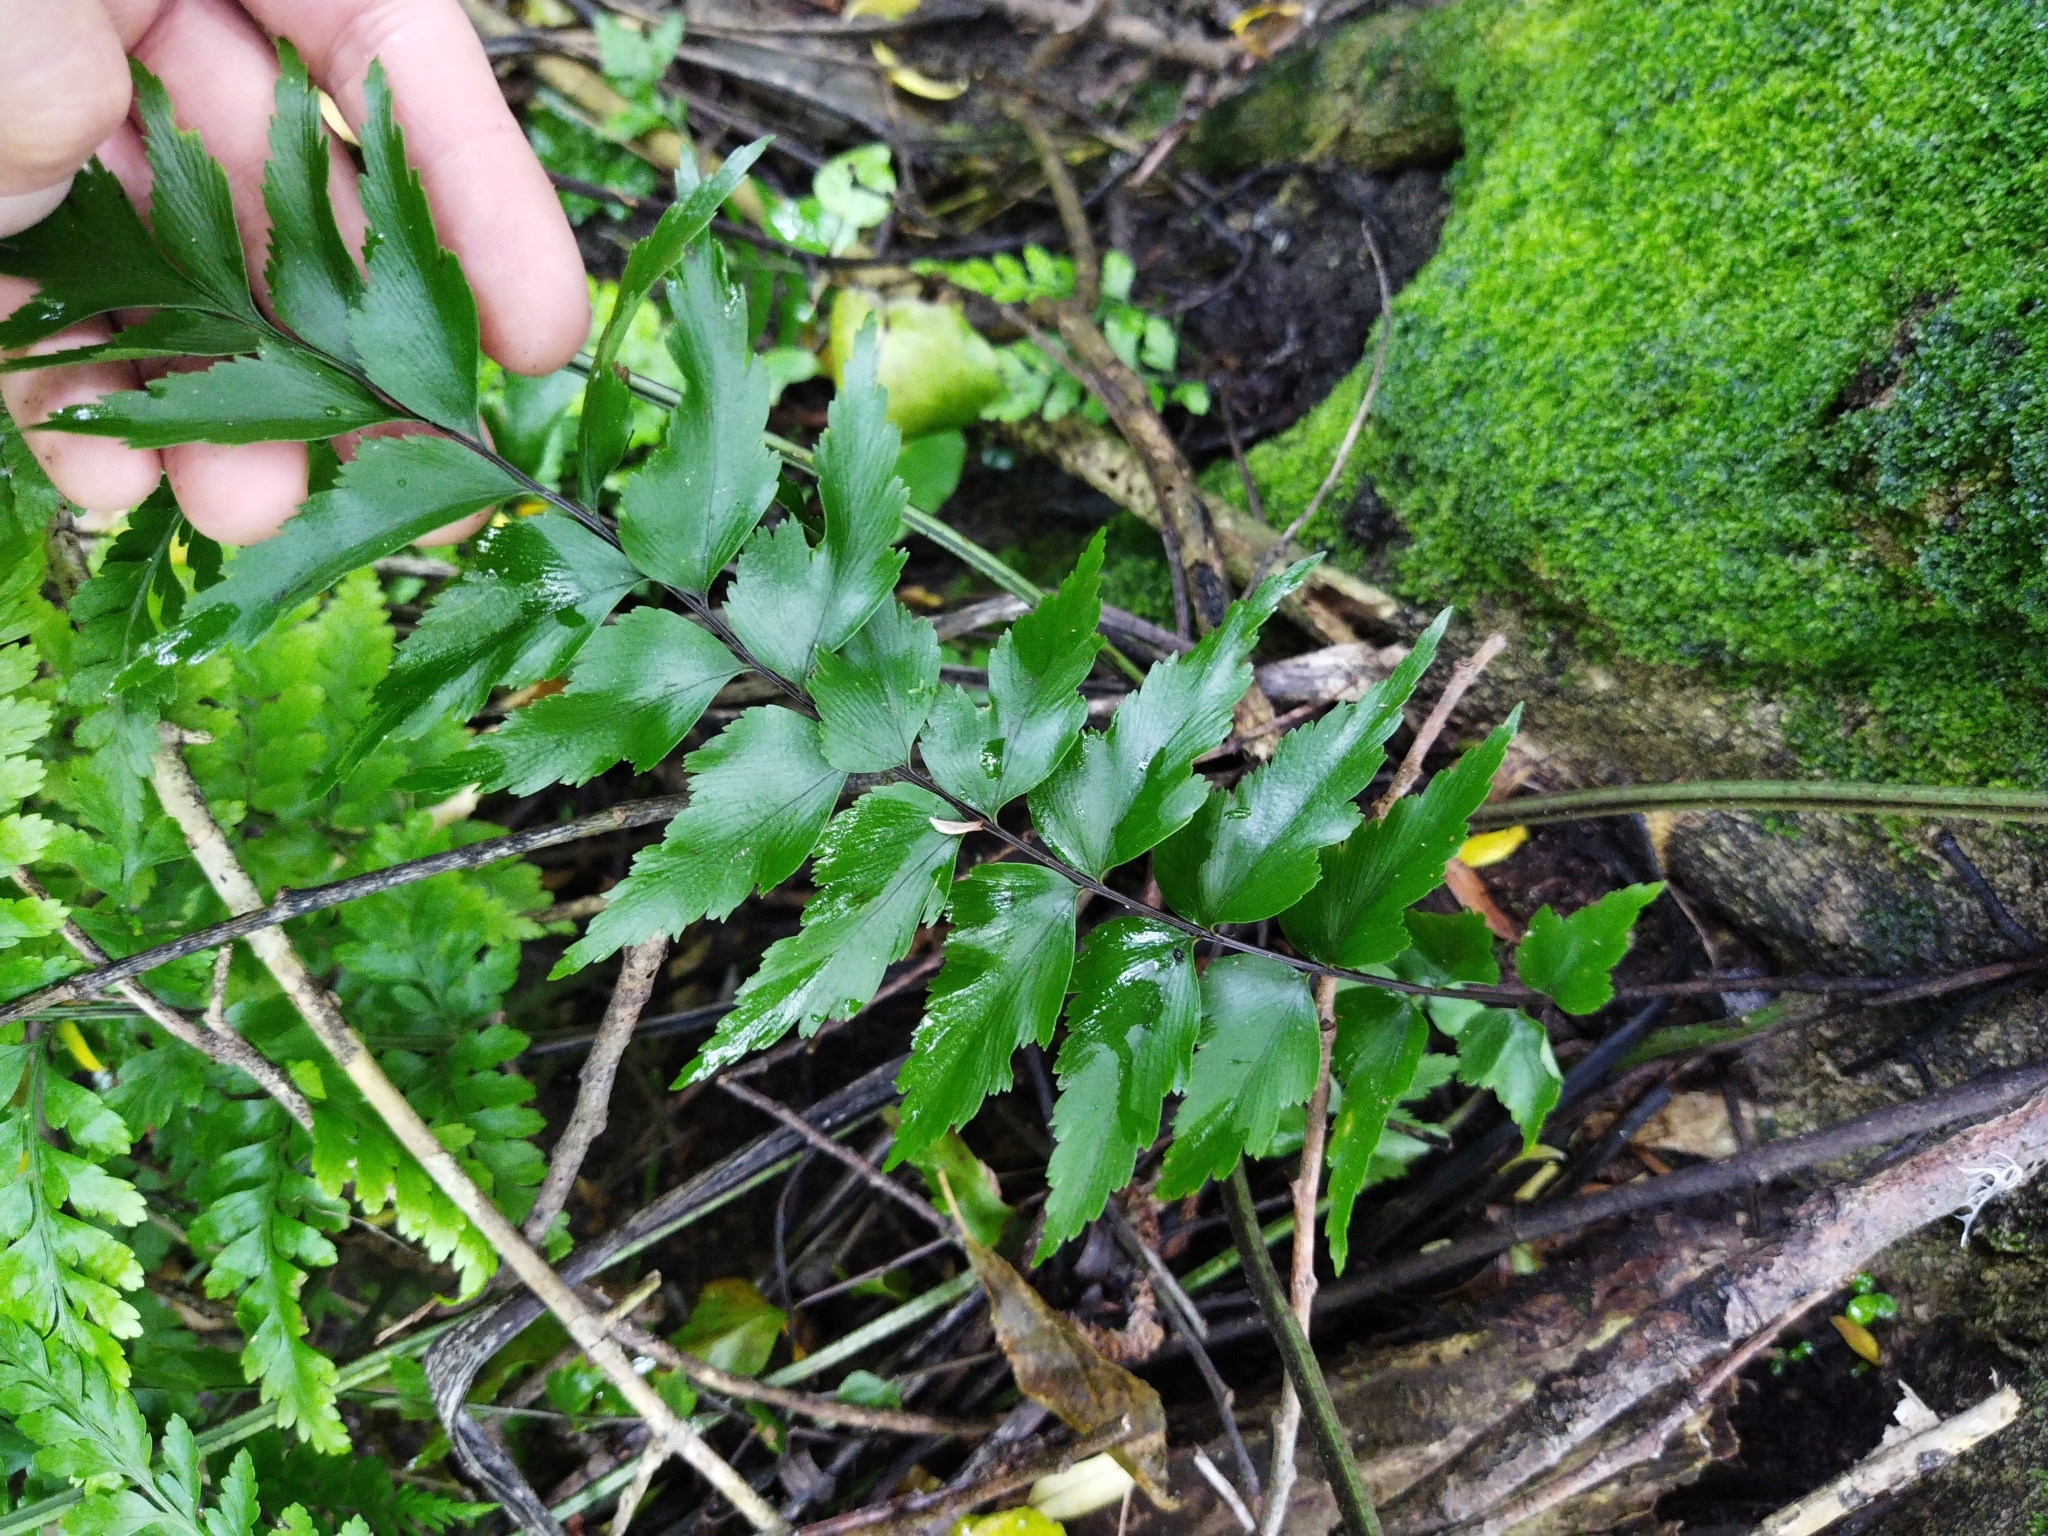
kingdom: Plantae
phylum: Tracheophyta
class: Polypodiopsida
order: Polypodiales
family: Aspleniaceae
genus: Asplenium
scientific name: Asplenium polyodon
